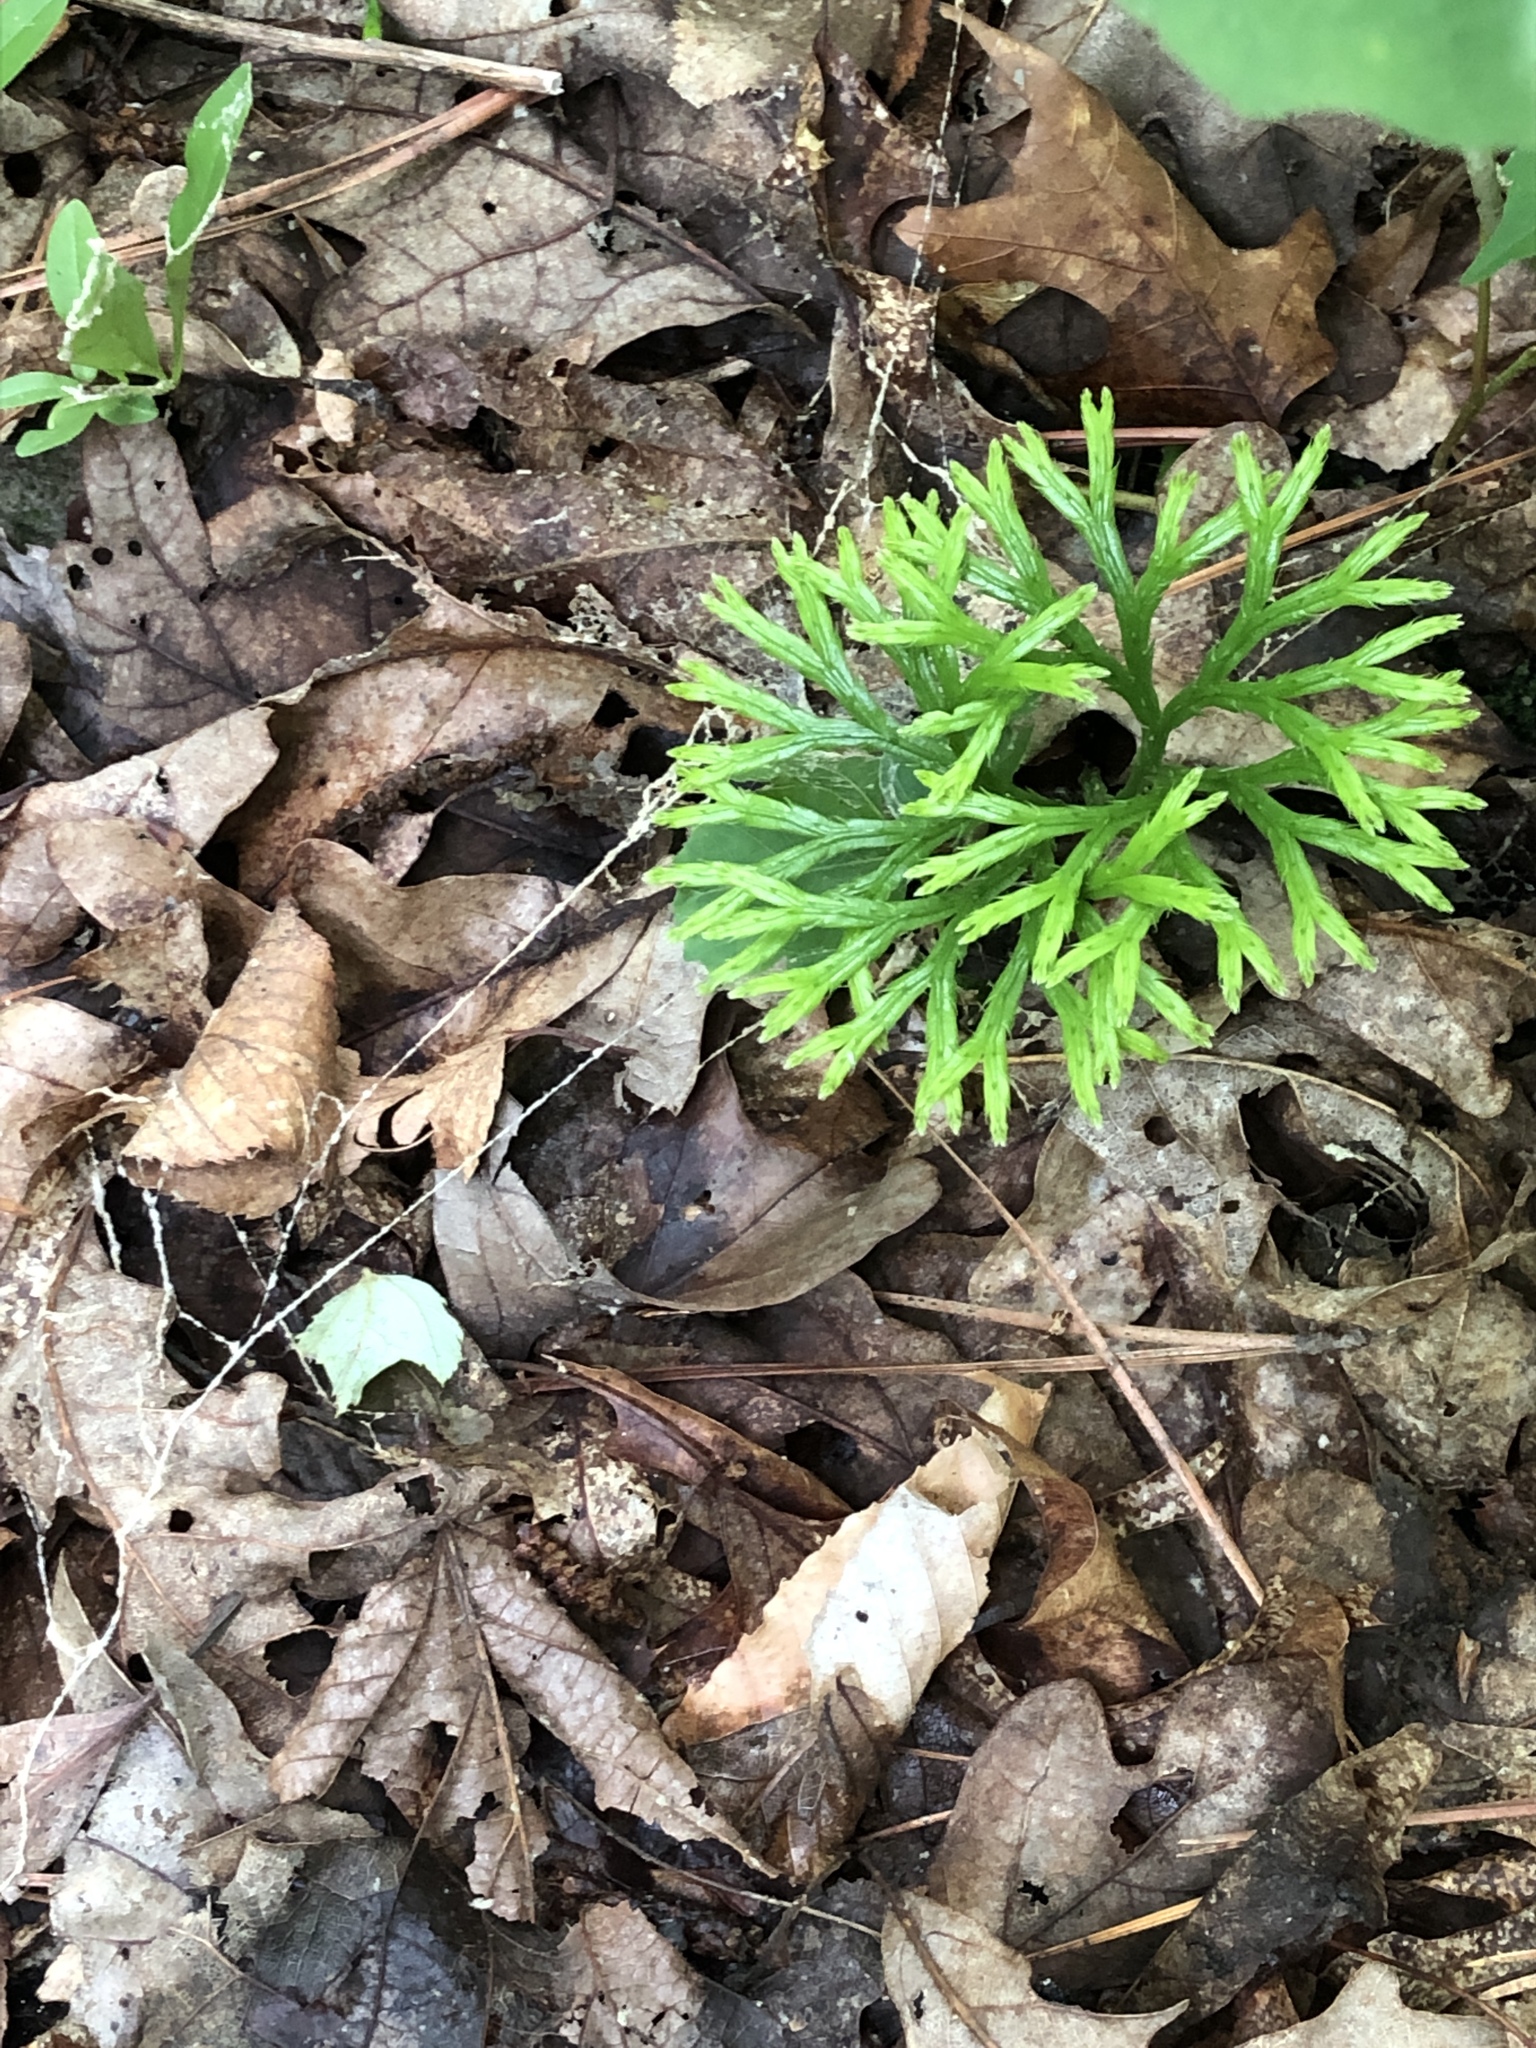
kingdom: Plantae
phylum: Tracheophyta
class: Lycopodiopsida
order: Lycopodiales
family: Lycopodiaceae
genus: Diphasiastrum
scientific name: Diphasiastrum digitatum
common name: Southern running-pine
